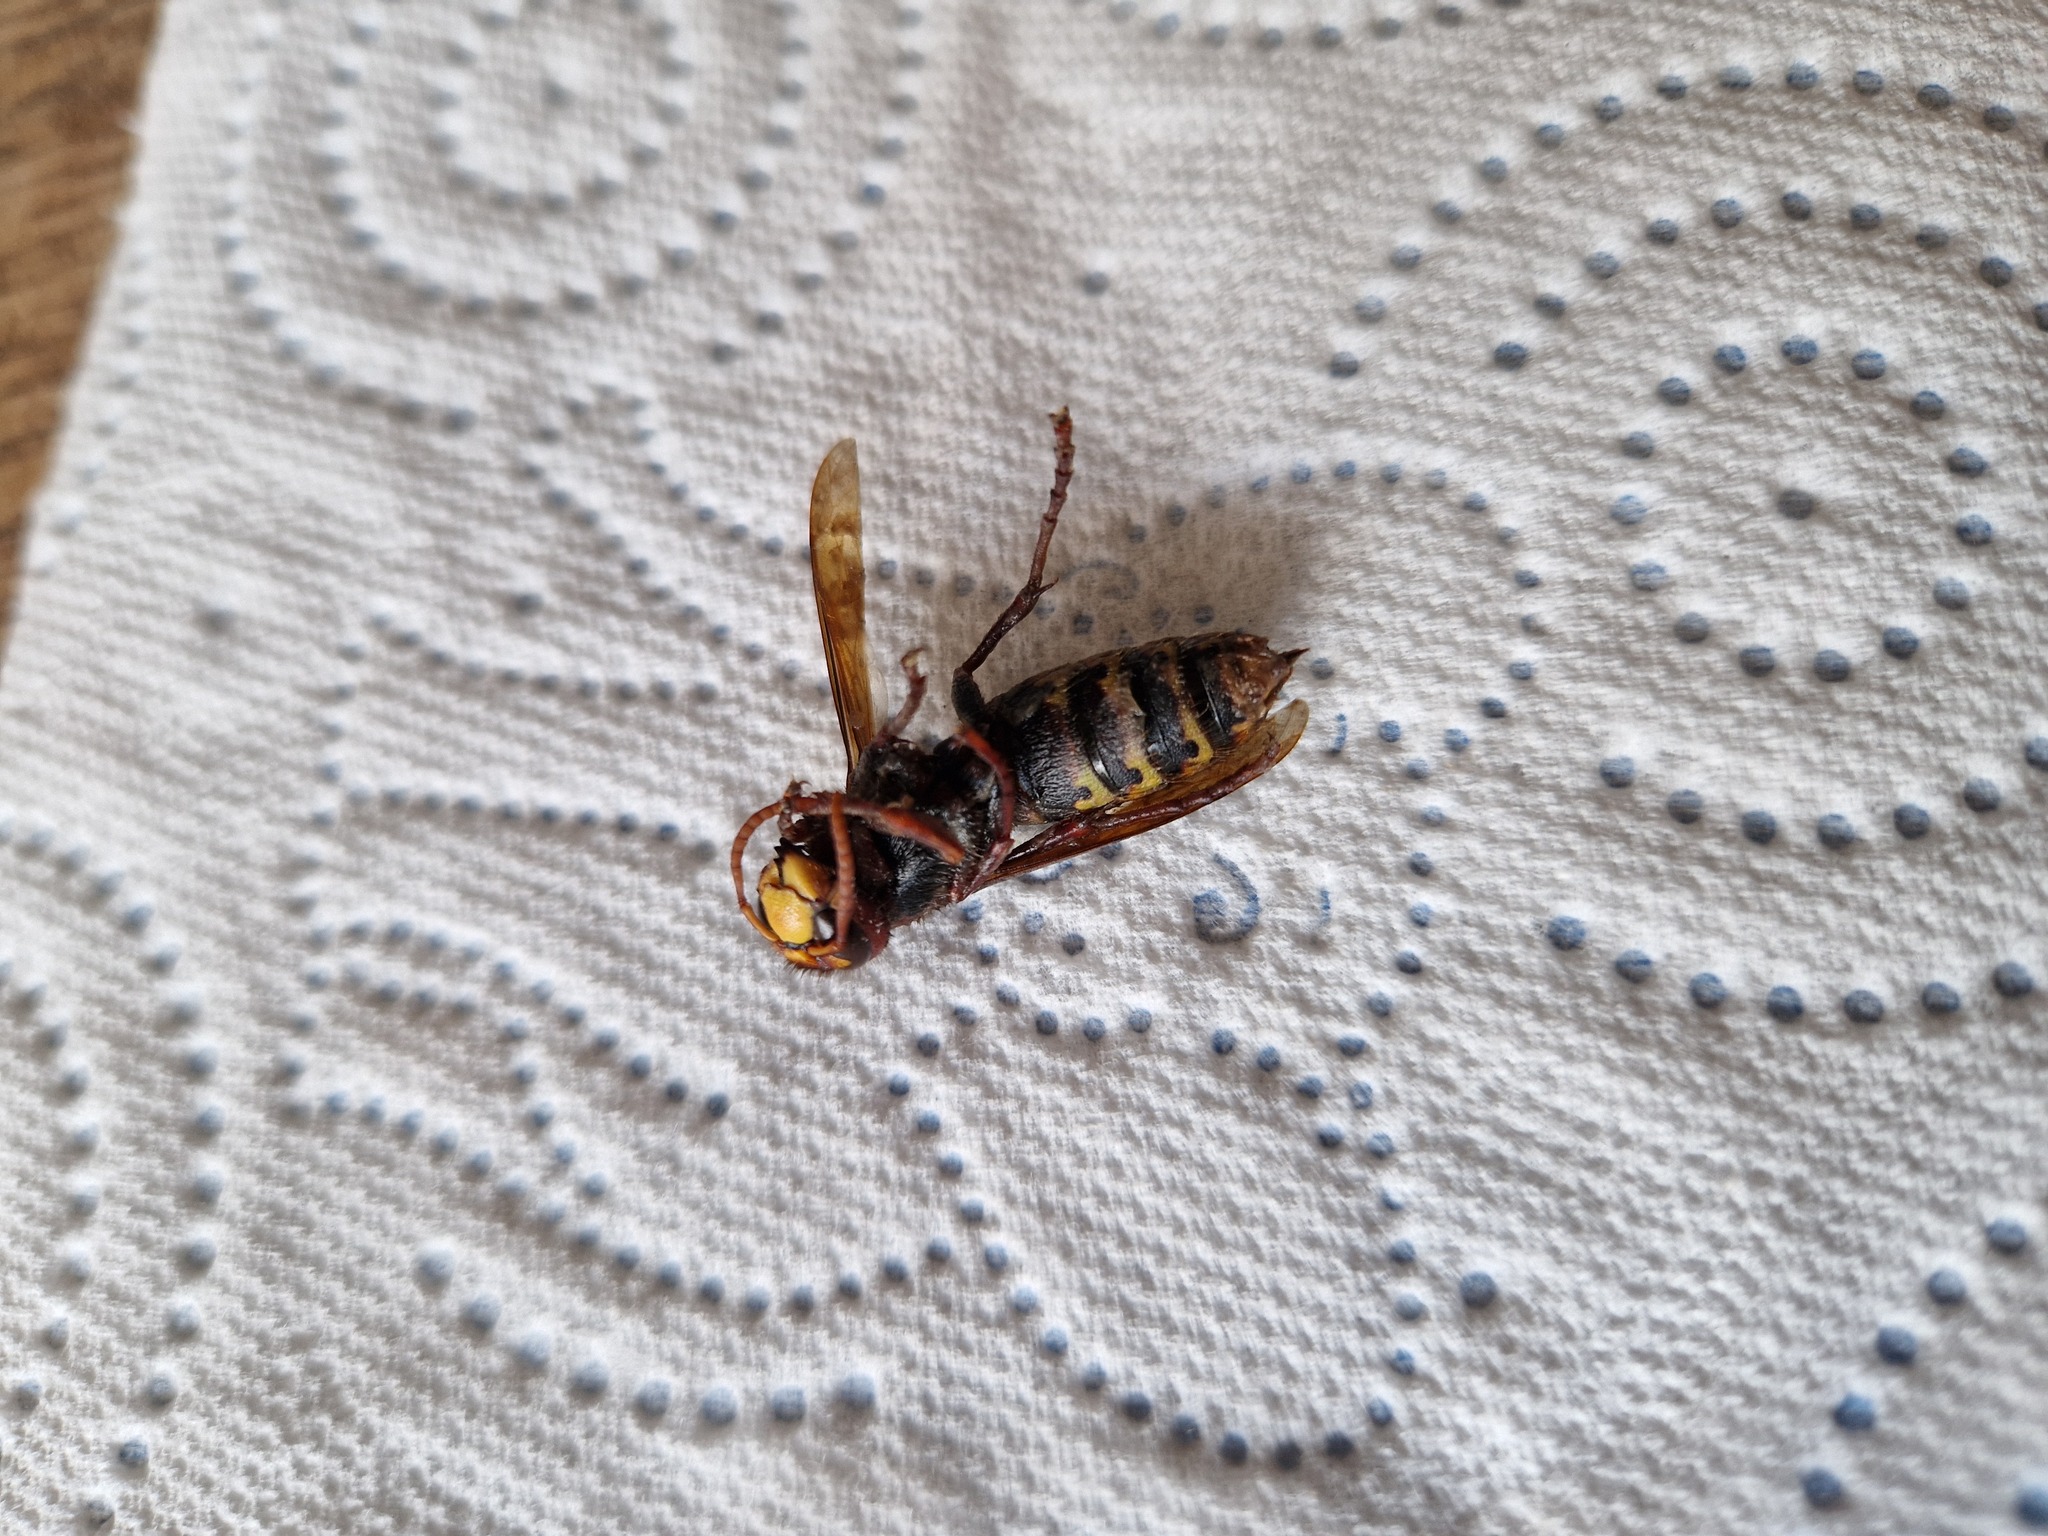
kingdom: Animalia
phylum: Arthropoda
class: Insecta
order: Hymenoptera
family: Vespidae
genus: Vespa
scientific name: Vespa crabro
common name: Hornet
